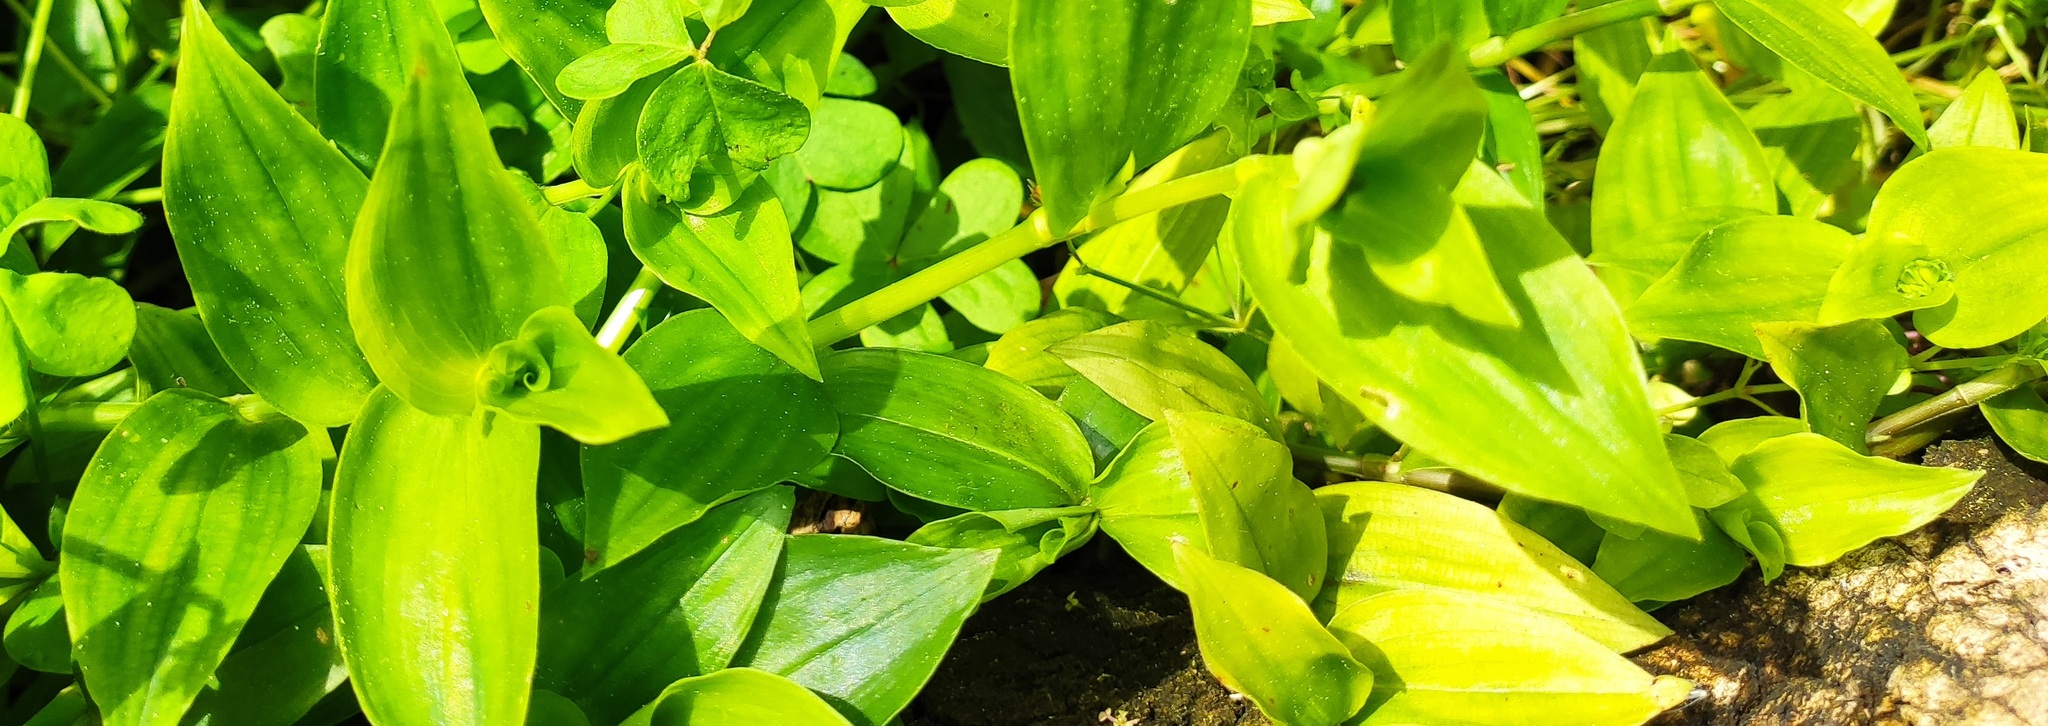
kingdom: Plantae
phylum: Tracheophyta
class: Liliopsida
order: Commelinales
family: Commelinaceae
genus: Tradescantia
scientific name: Tradescantia fluminensis
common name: Wandering-jew
